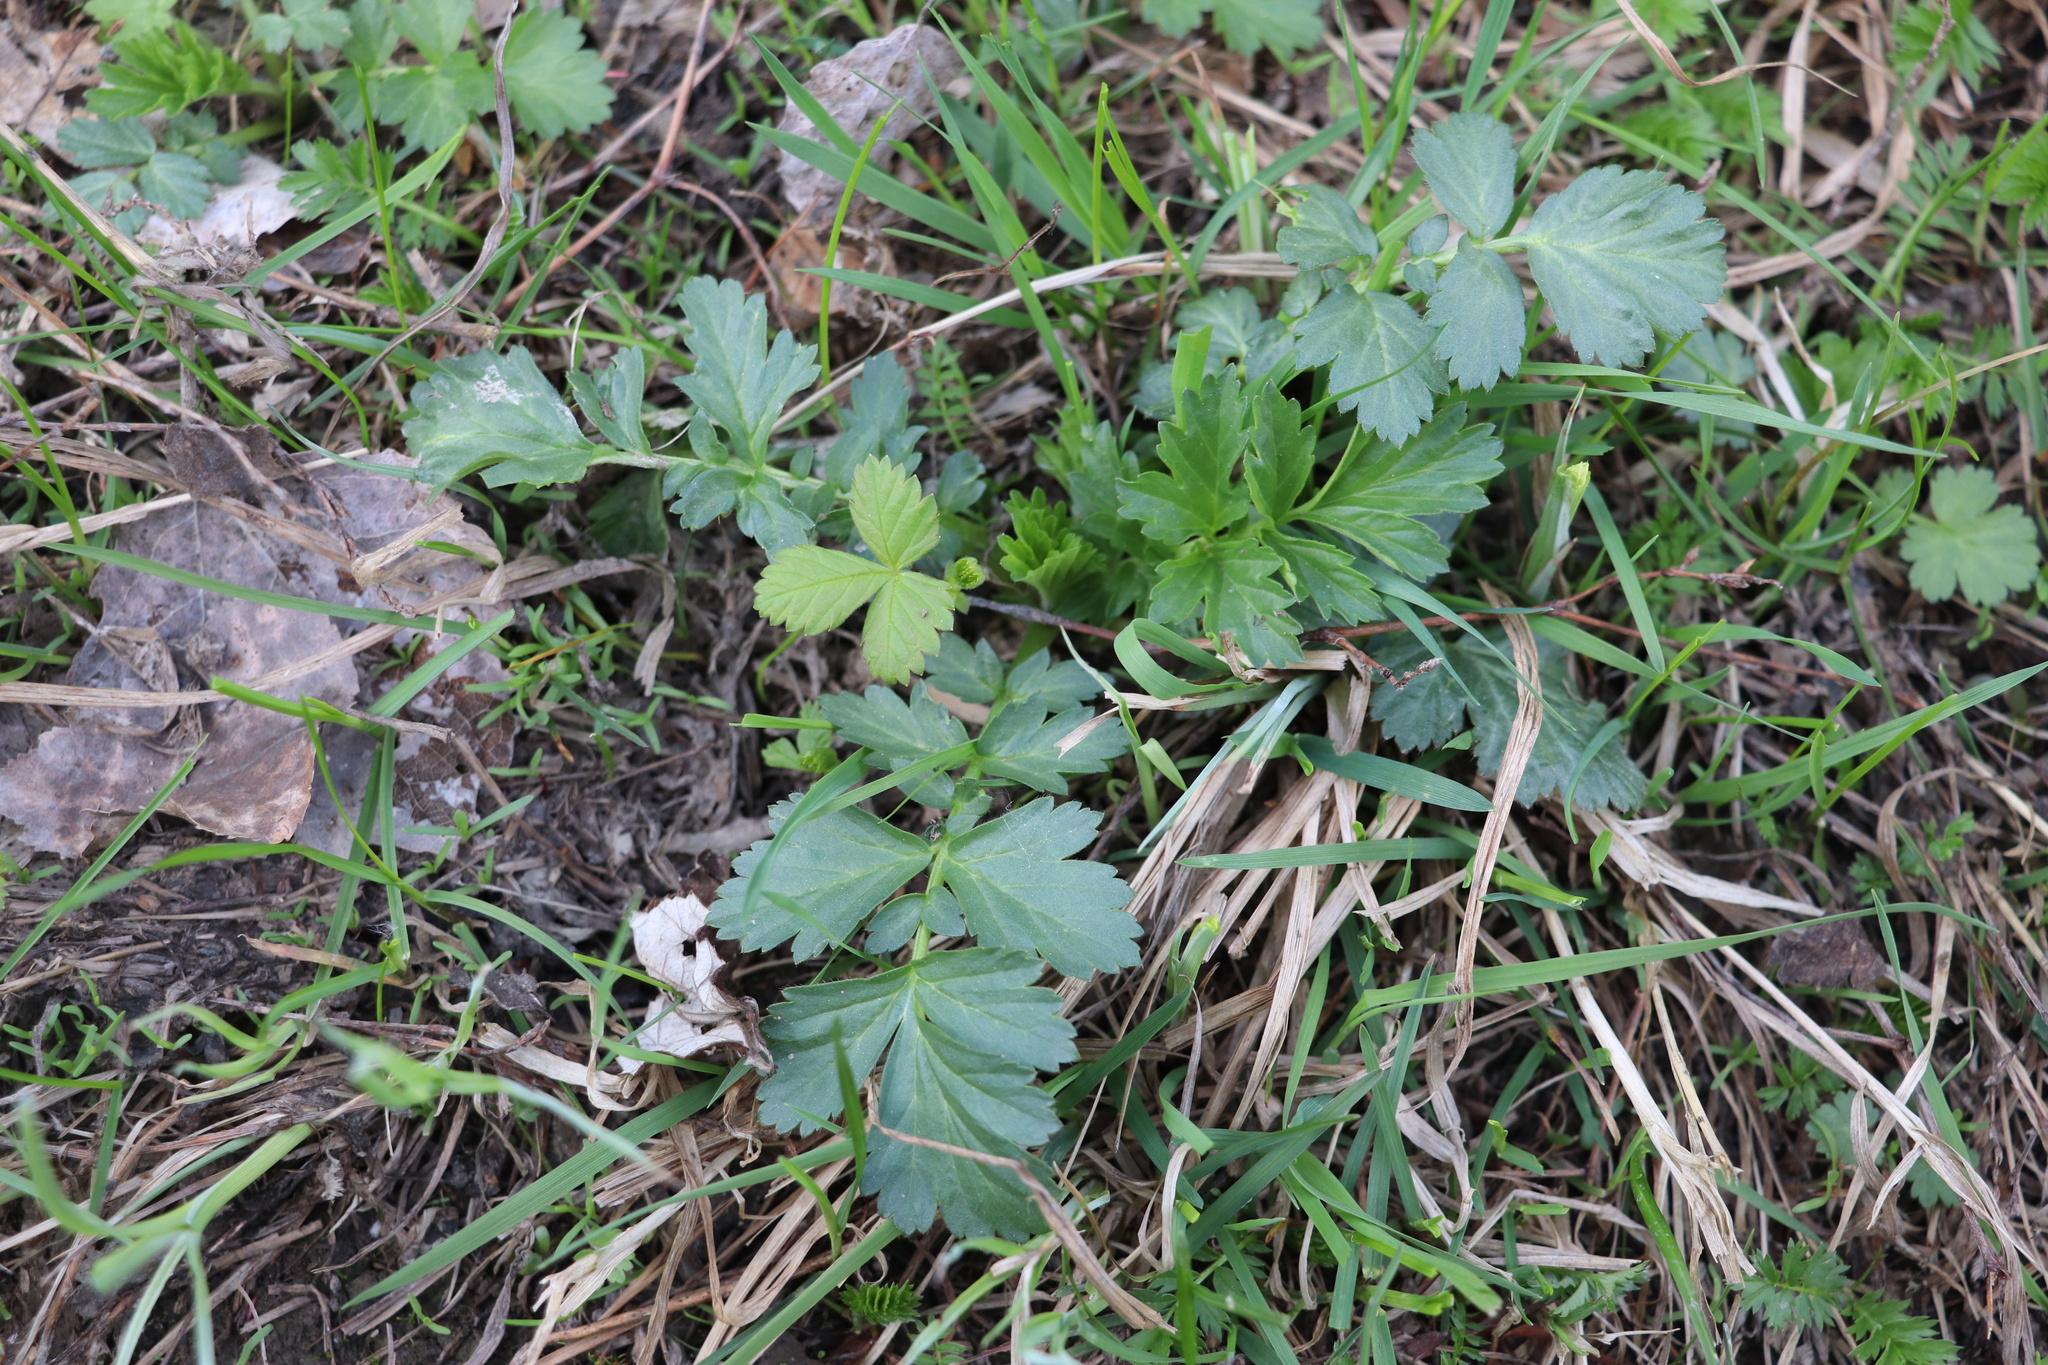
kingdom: Plantae
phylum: Tracheophyta
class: Magnoliopsida
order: Rosales
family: Rosaceae
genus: Geum
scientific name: Geum aleppicum
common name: Yellow avens
